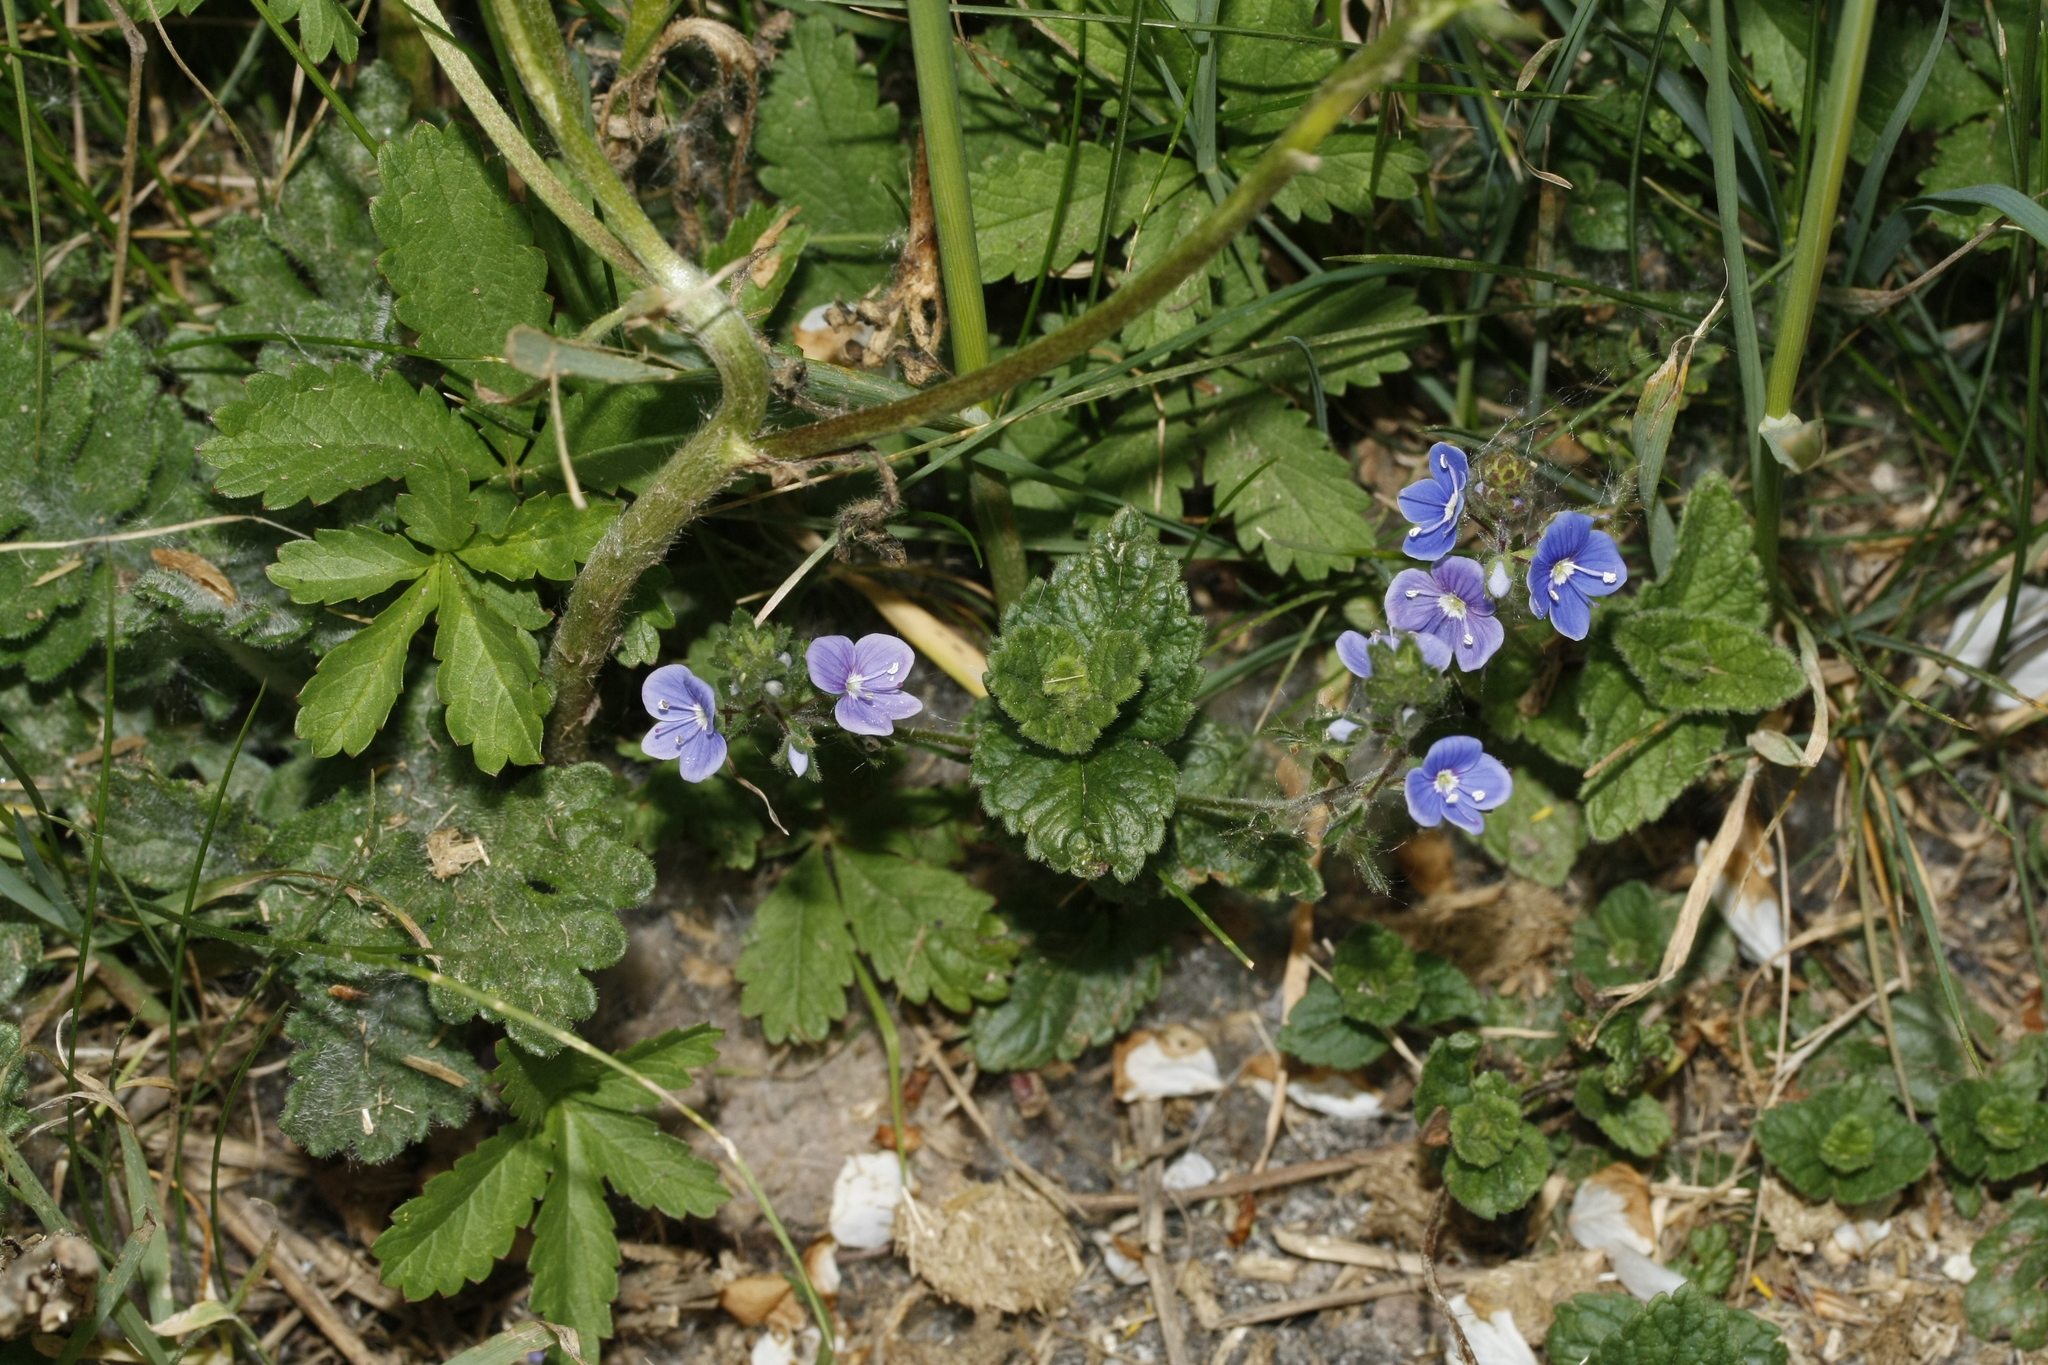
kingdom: Plantae
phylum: Tracheophyta
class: Magnoliopsida
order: Lamiales
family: Plantaginaceae
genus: Veronica
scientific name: Veronica chamaedrys
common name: Germander speedwell
